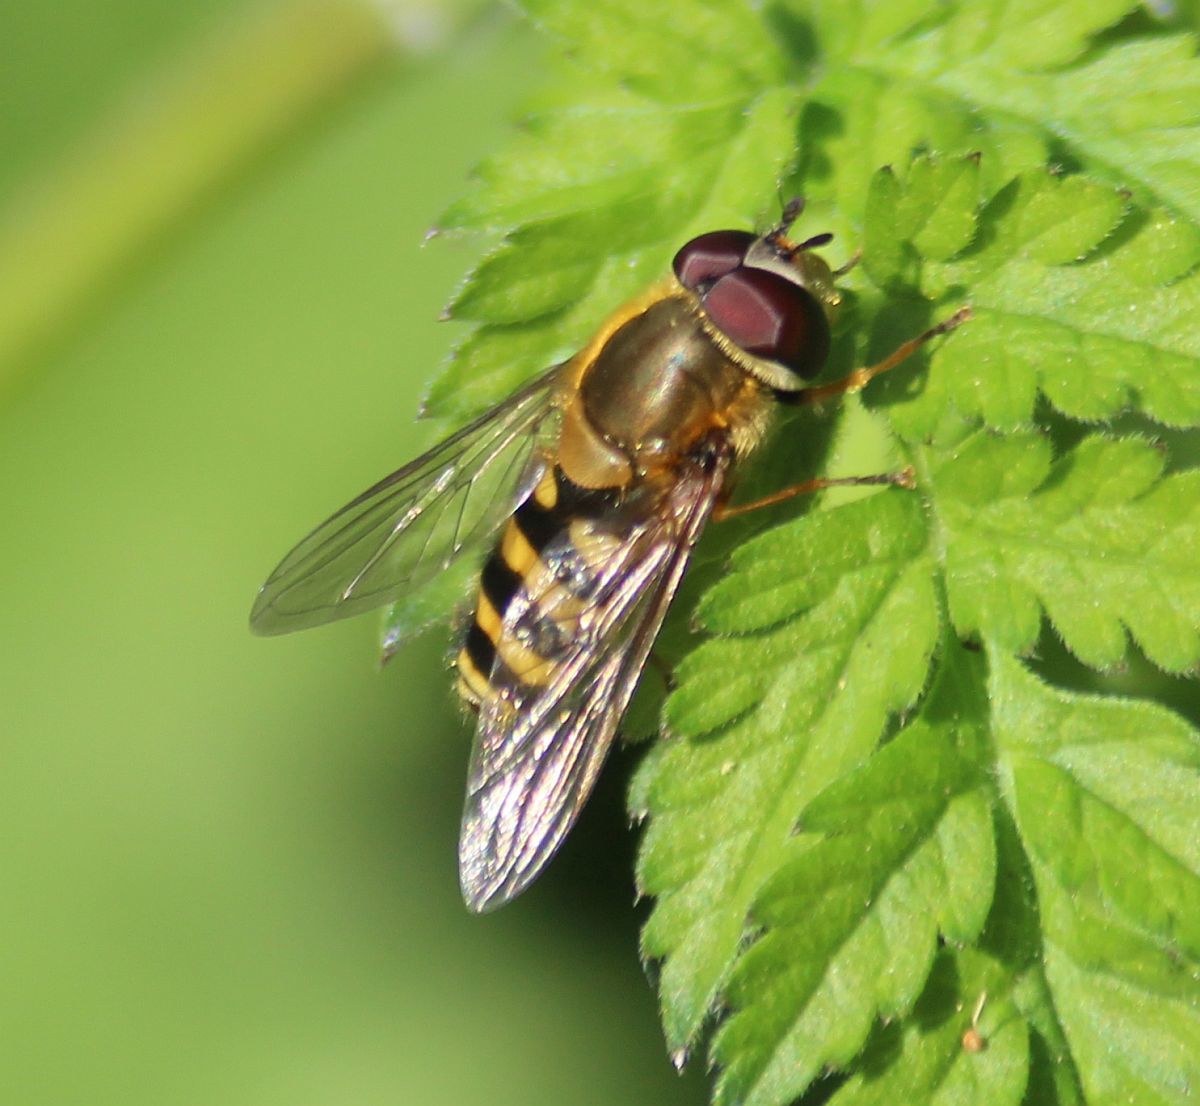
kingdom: Animalia
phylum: Arthropoda
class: Insecta
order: Diptera
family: Syrphidae
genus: Syrphus
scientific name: Syrphus
